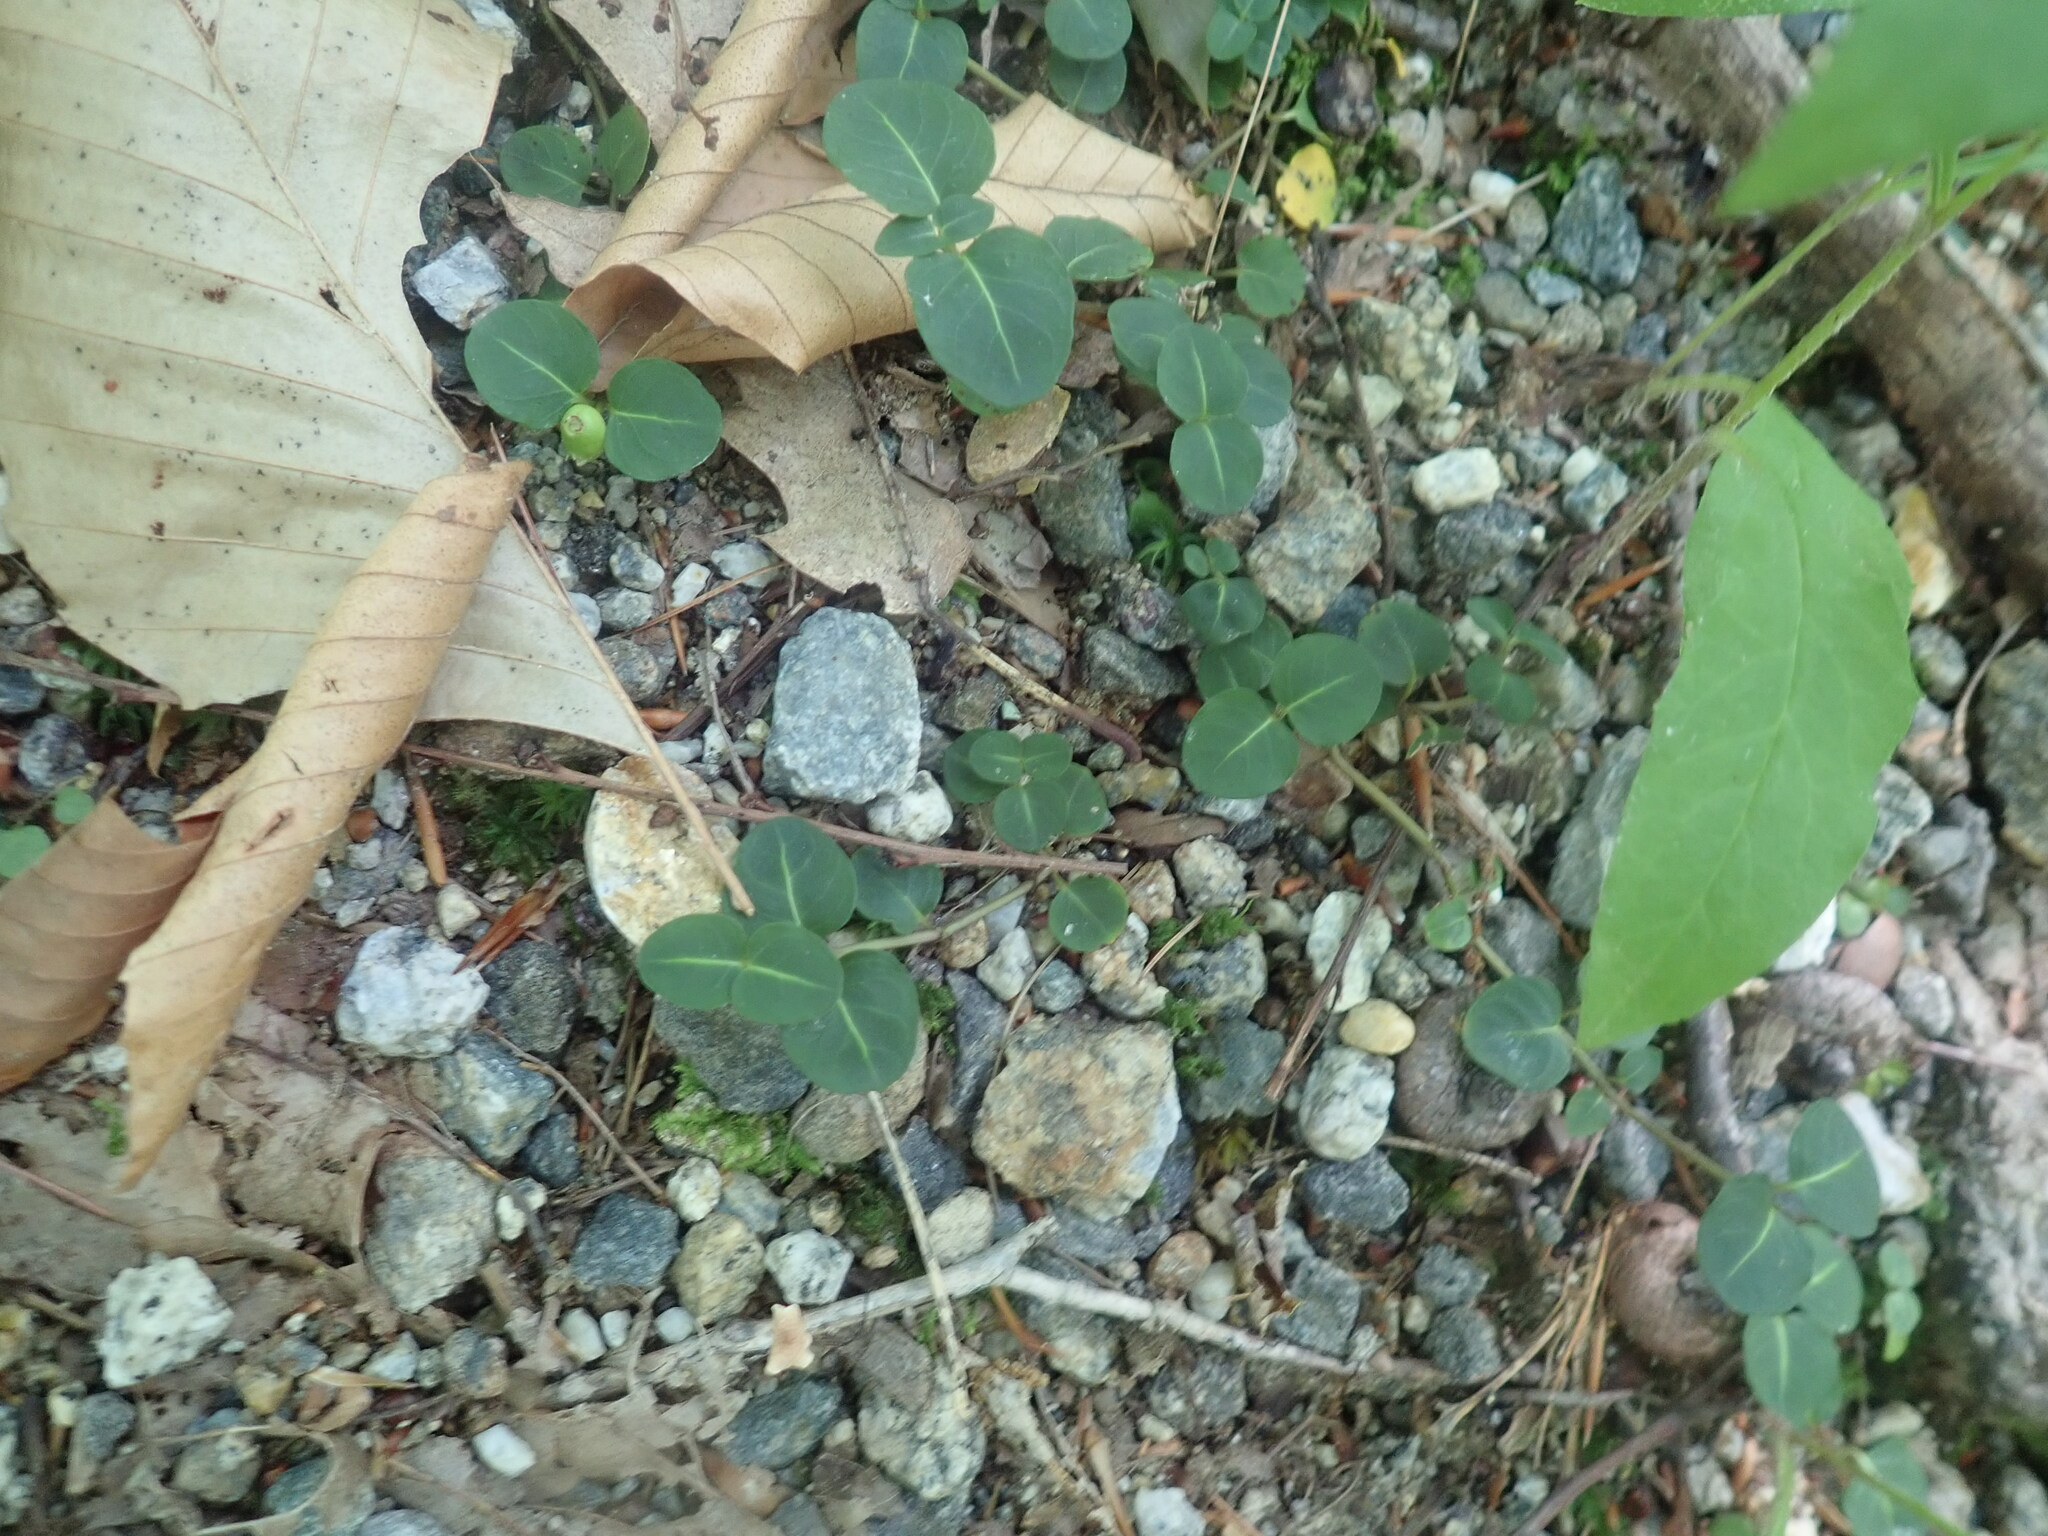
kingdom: Plantae
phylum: Tracheophyta
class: Magnoliopsida
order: Gentianales
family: Rubiaceae
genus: Mitchella
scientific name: Mitchella repens
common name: Partridge-berry
